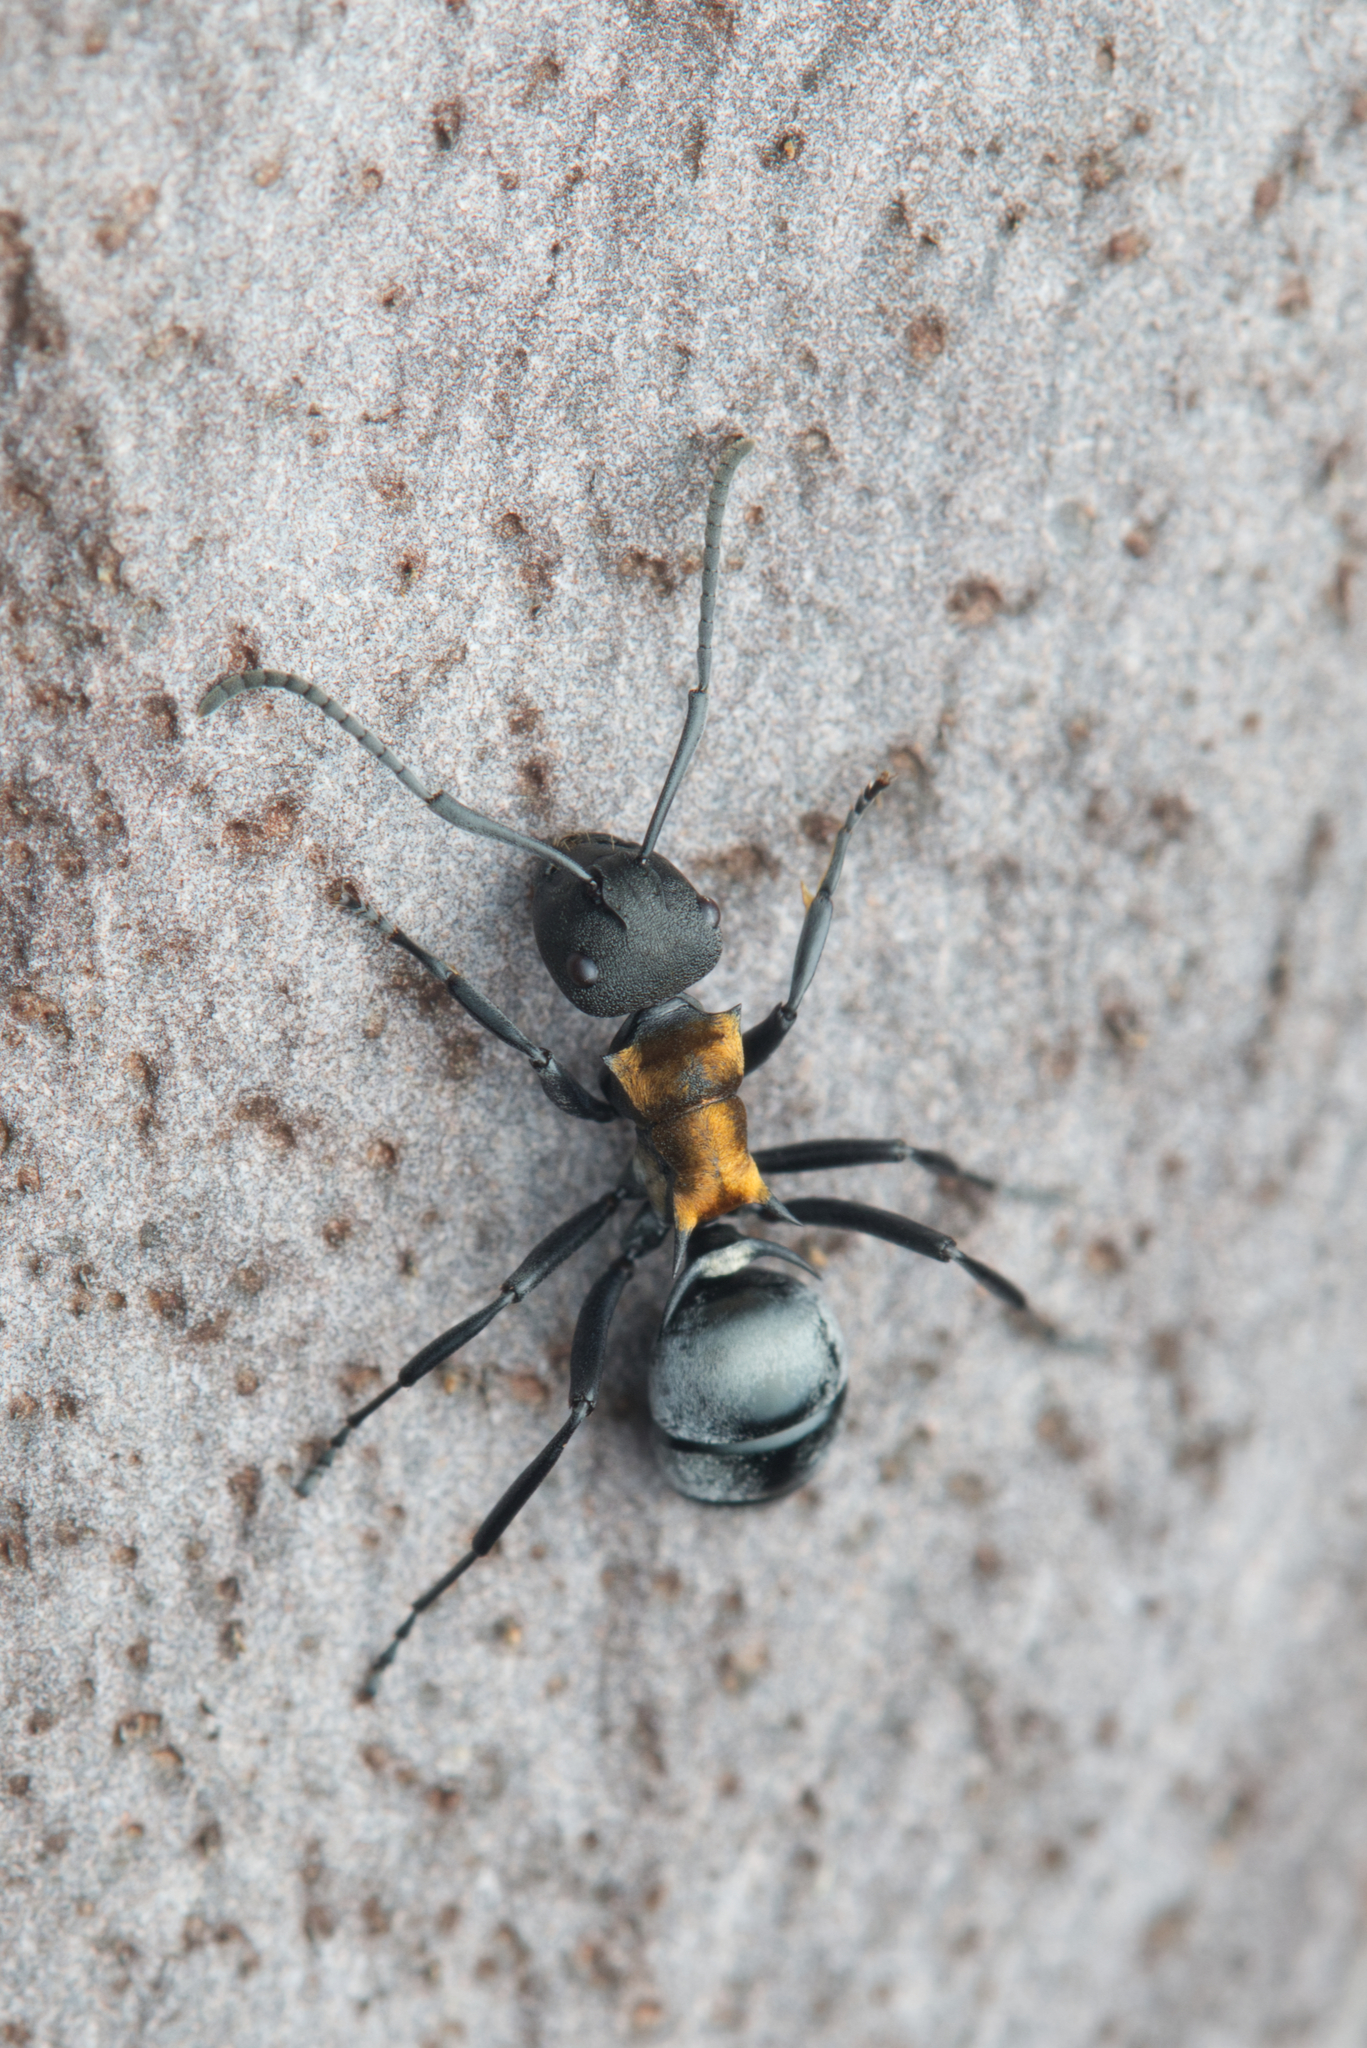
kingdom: Animalia
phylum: Arthropoda
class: Insecta
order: Hymenoptera
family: Formicidae
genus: Polyrhachis
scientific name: Polyrhachis ornata
